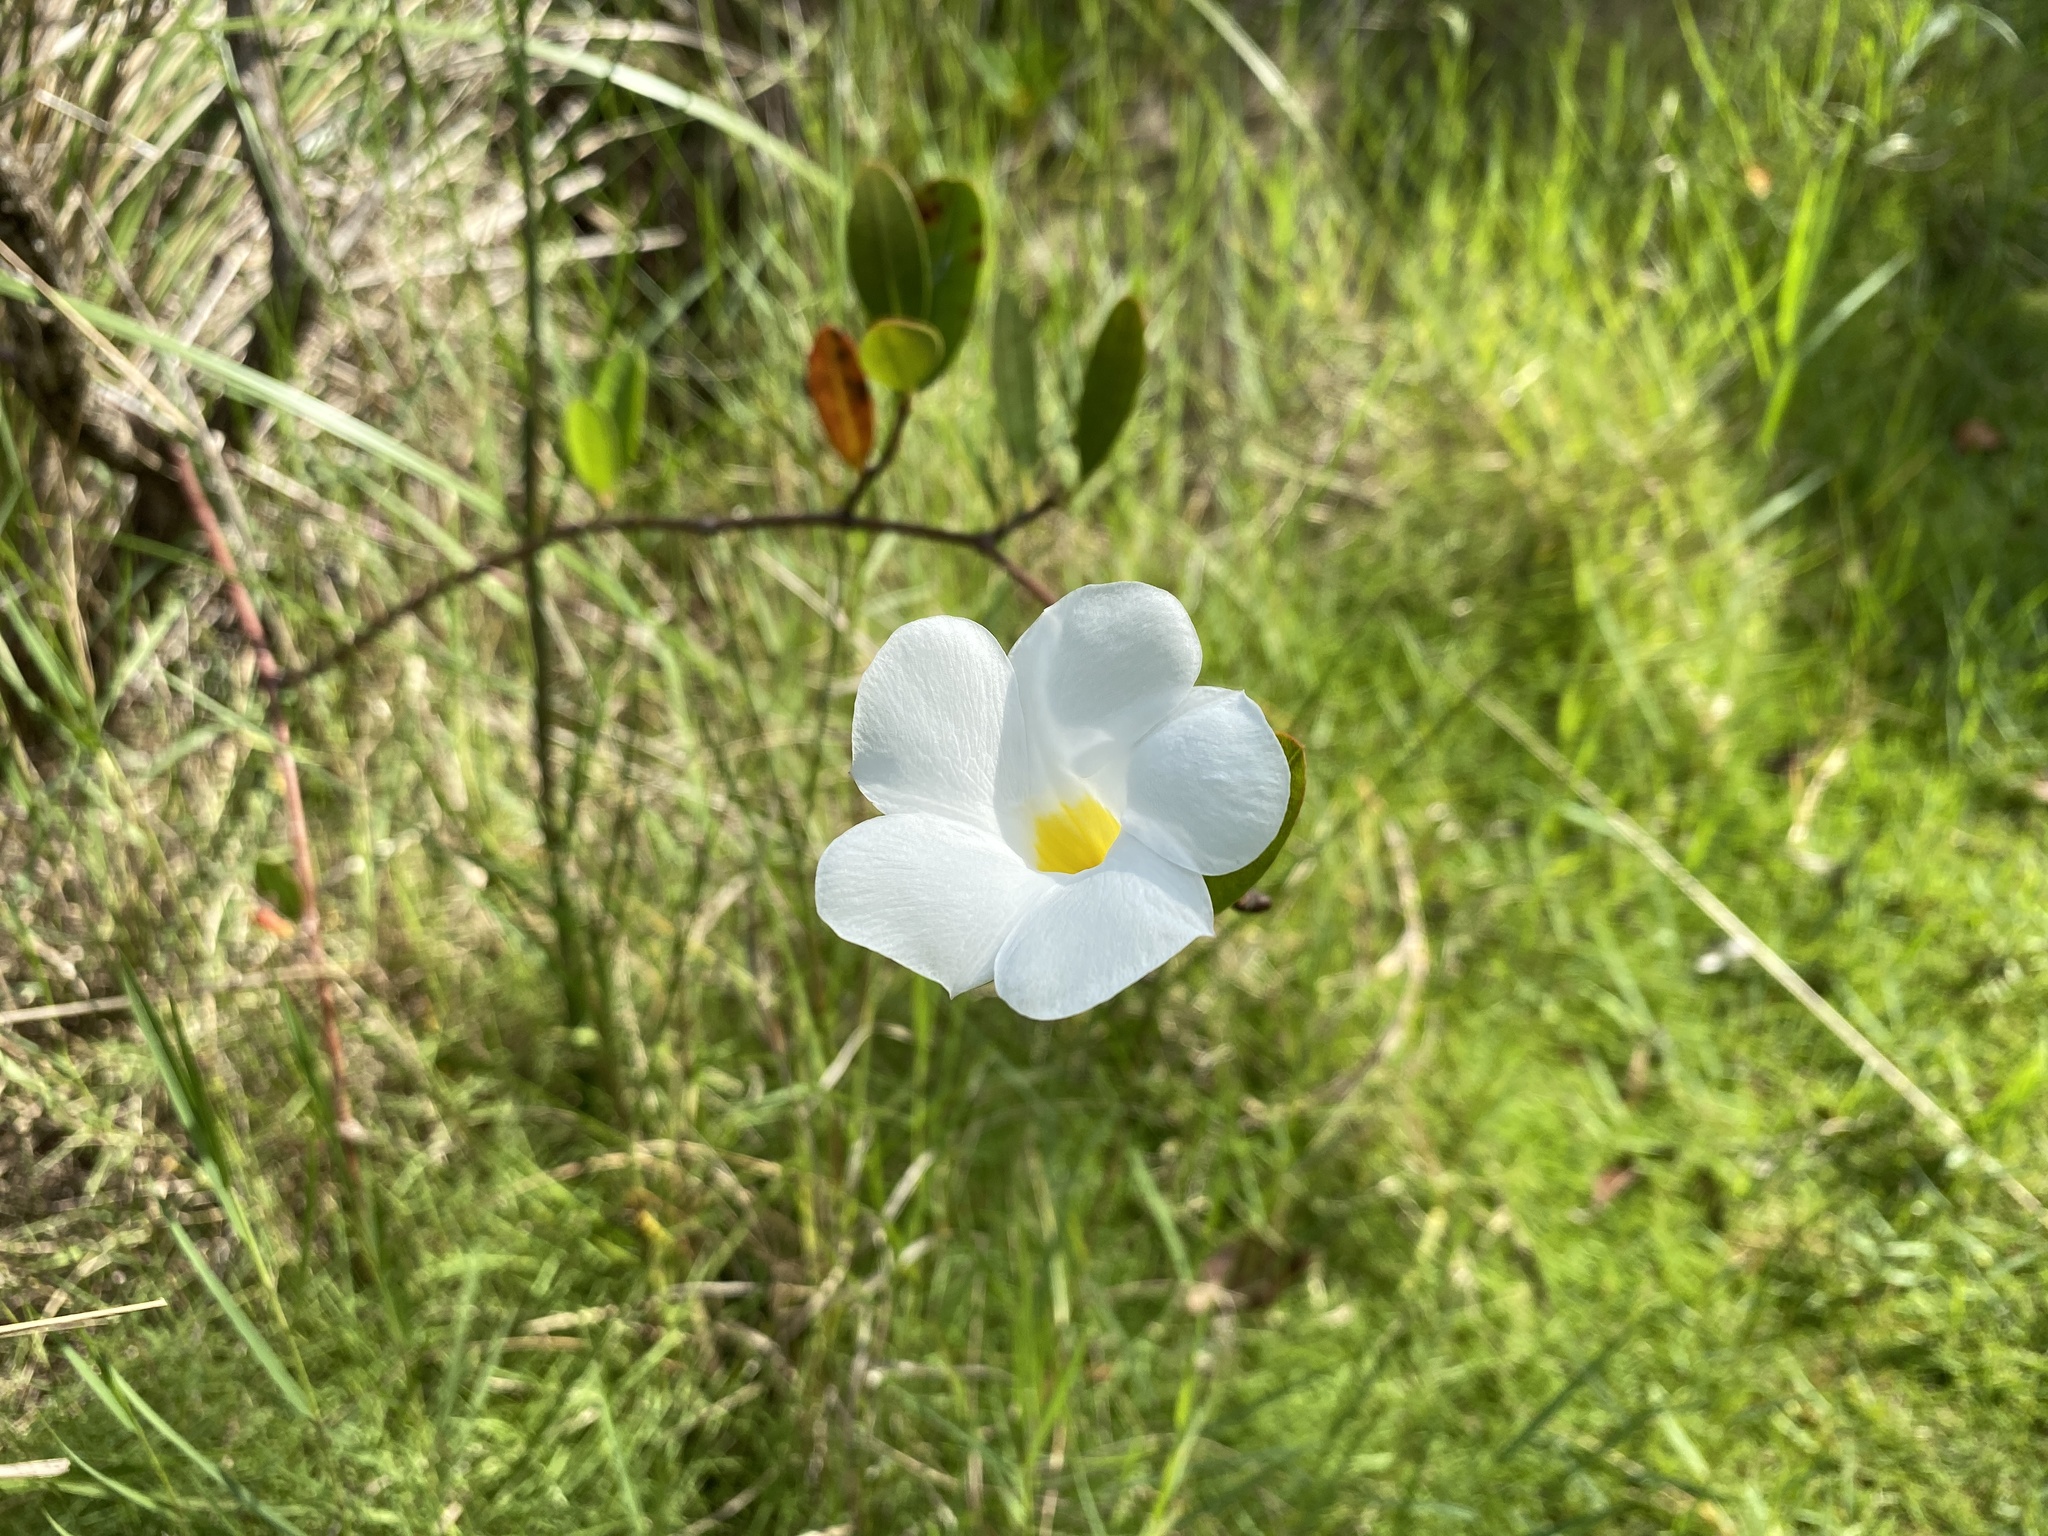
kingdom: Plantae
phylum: Tracheophyta
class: Magnoliopsida
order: Gentianales
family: Apocynaceae
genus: Rhabdadenia
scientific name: Rhabdadenia biflora
